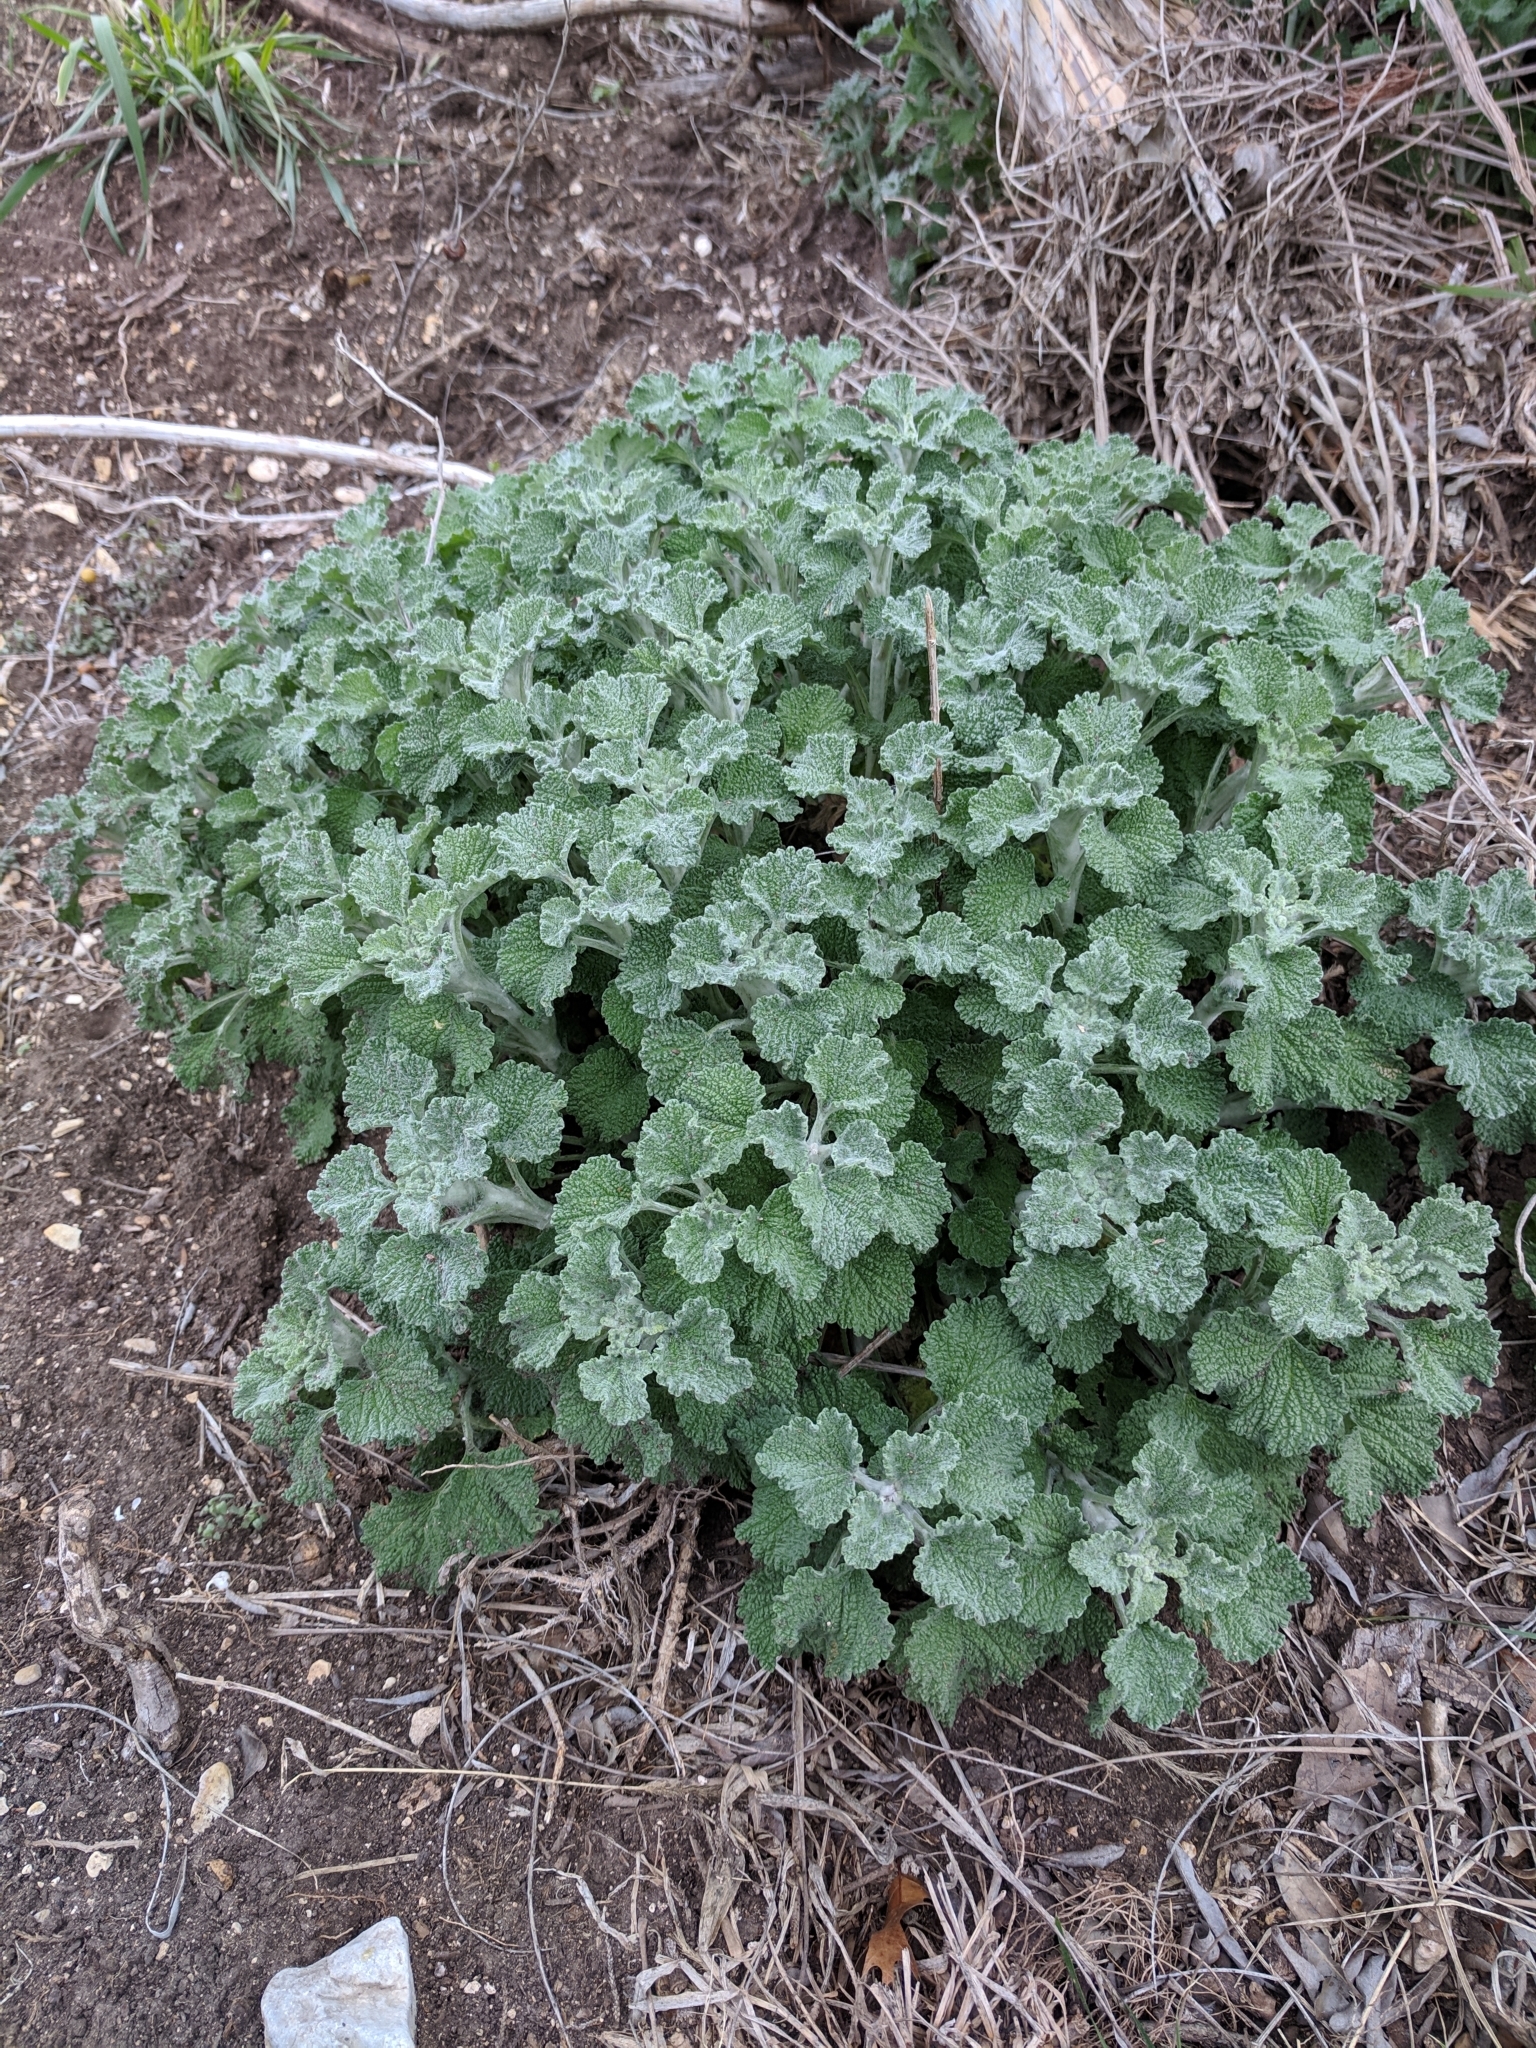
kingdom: Plantae
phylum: Tracheophyta
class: Magnoliopsida
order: Lamiales
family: Lamiaceae
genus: Marrubium
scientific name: Marrubium vulgare
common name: Horehound
